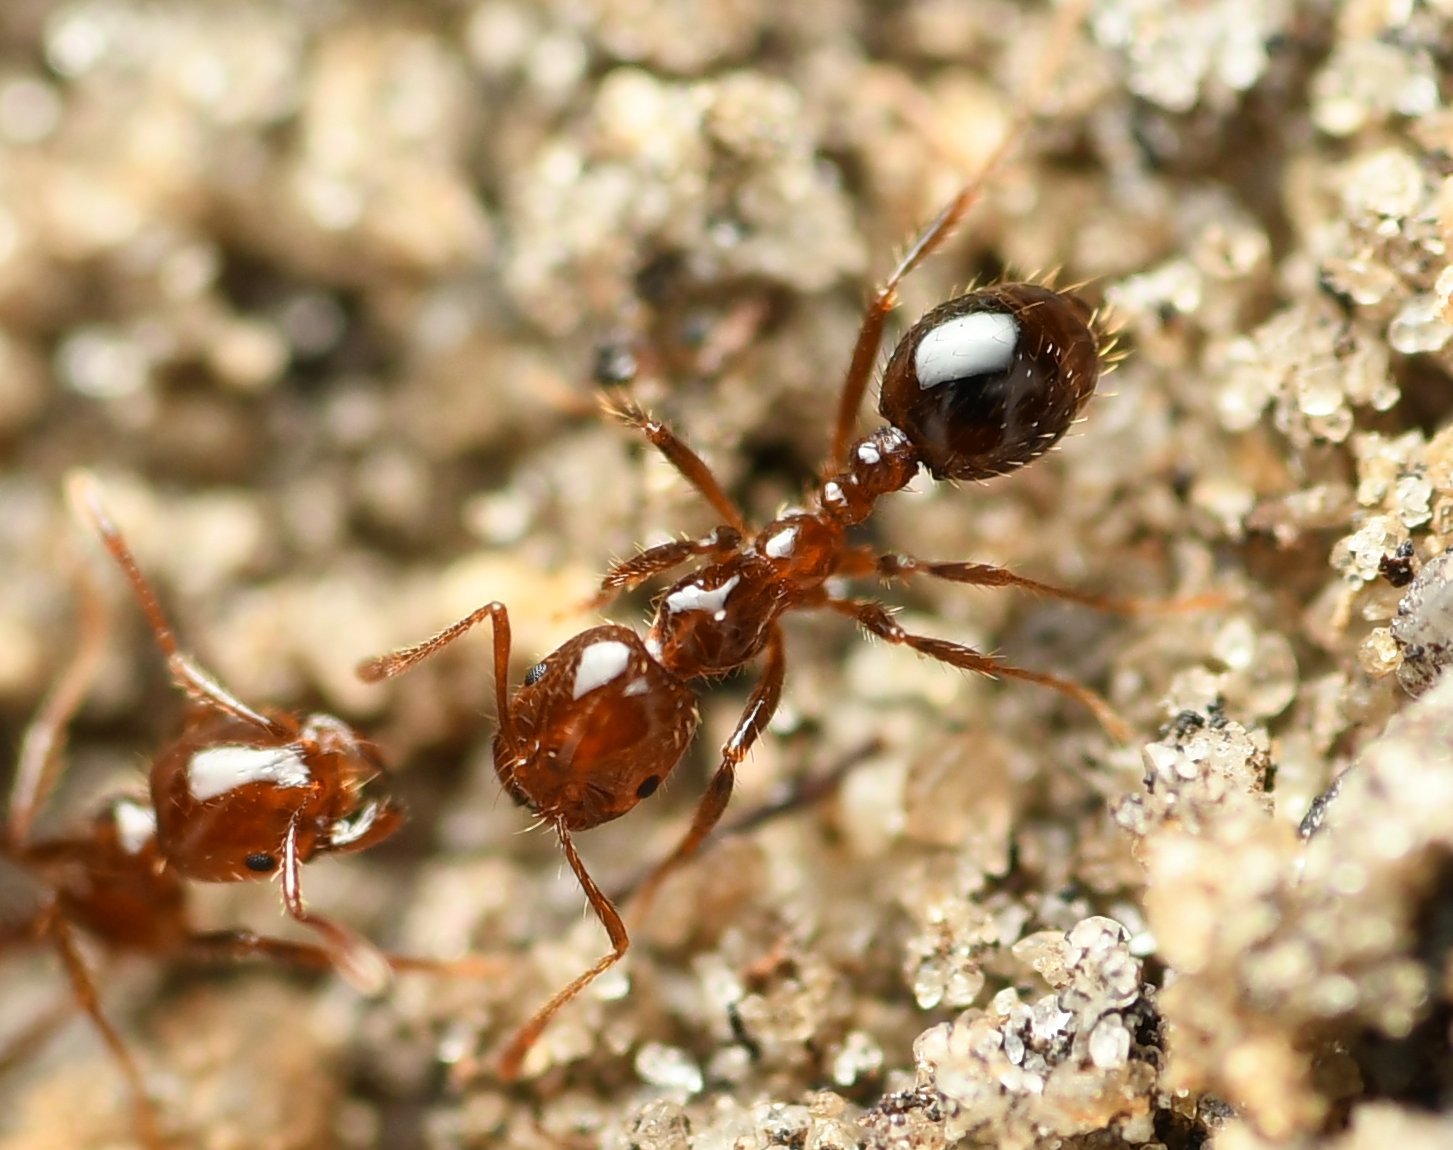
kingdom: Animalia
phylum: Arthropoda
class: Insecta
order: Hymenoptera
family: Formicidae
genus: Solenopsis
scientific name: Solenopsis invicta
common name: Red imported fire ant
